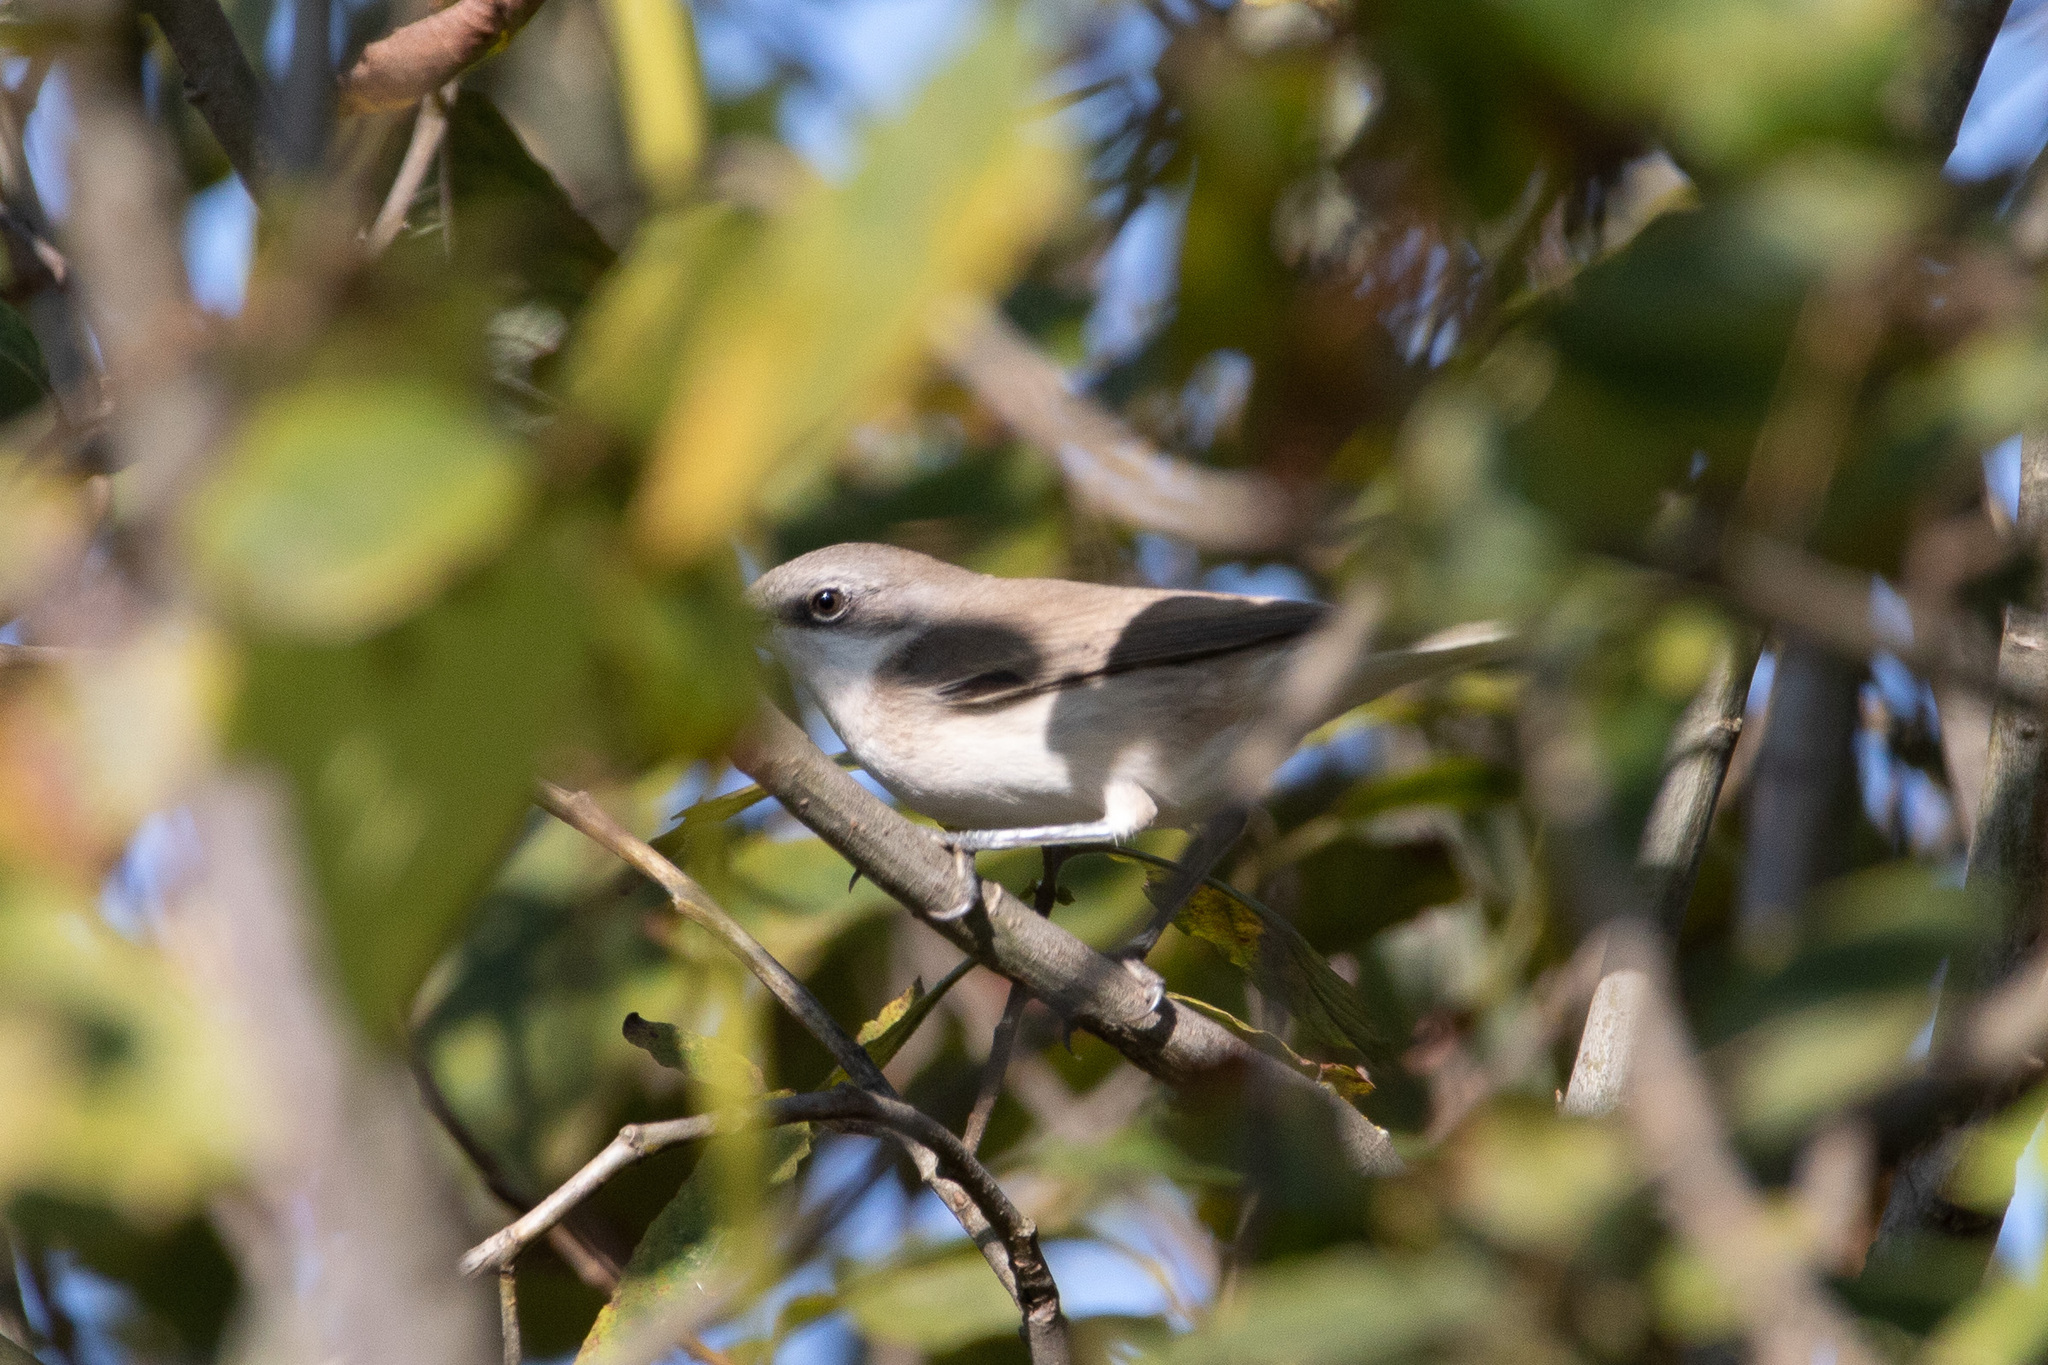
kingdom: Animalia
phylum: Chordata
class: Aves
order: Passeriformes
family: Sylviidae
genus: Sylvia
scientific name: Sylvia curruca
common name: Lesser whitethroat
